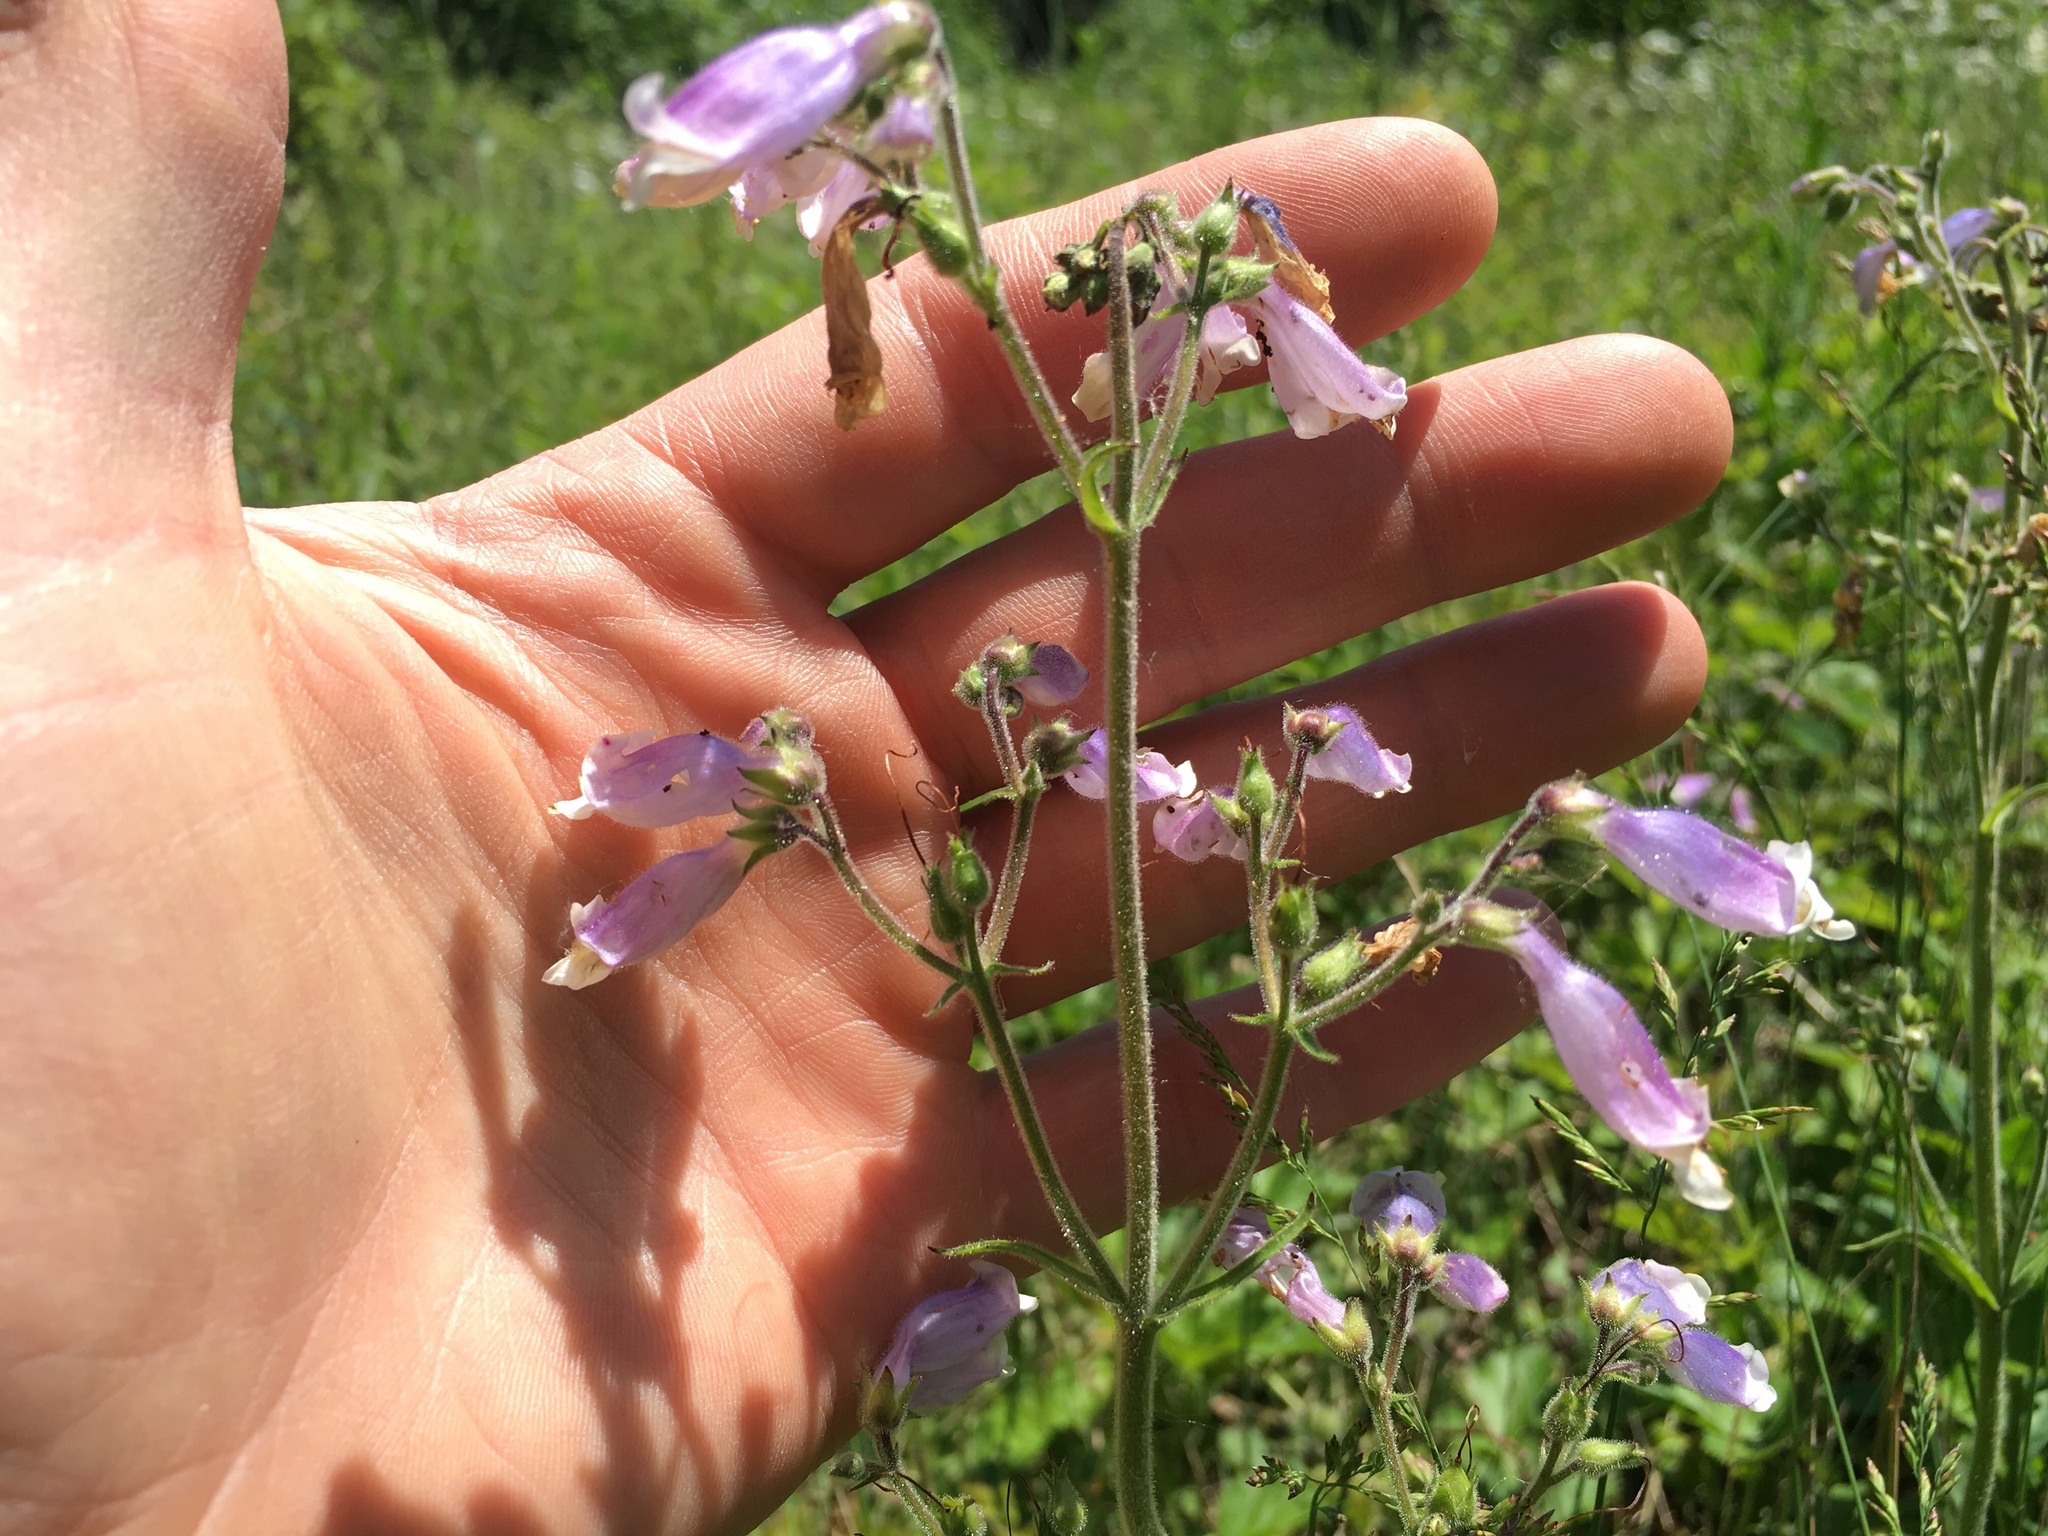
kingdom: Plantae
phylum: Tracheophyta
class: Magnoliopsida
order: Lamiales
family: Plantaginaceae
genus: Penstemon
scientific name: Penstemon hirsutus
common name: Hairy beardtongue
